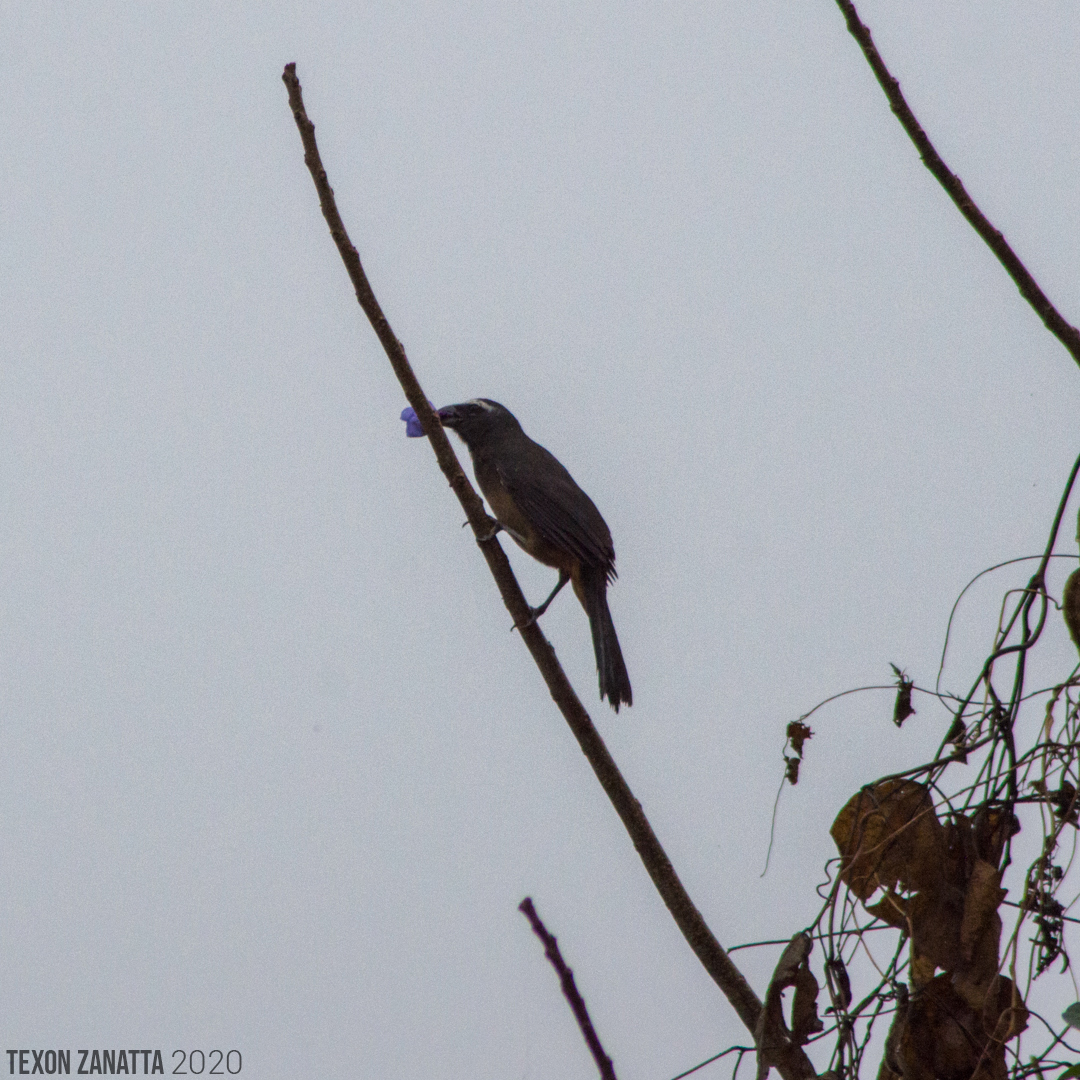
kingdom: Animalia
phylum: Chordata
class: Aves
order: Passeriformes
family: Thraupidae
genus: Saltator
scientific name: Saltator grandis
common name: Cinnamon-bellied saltator
